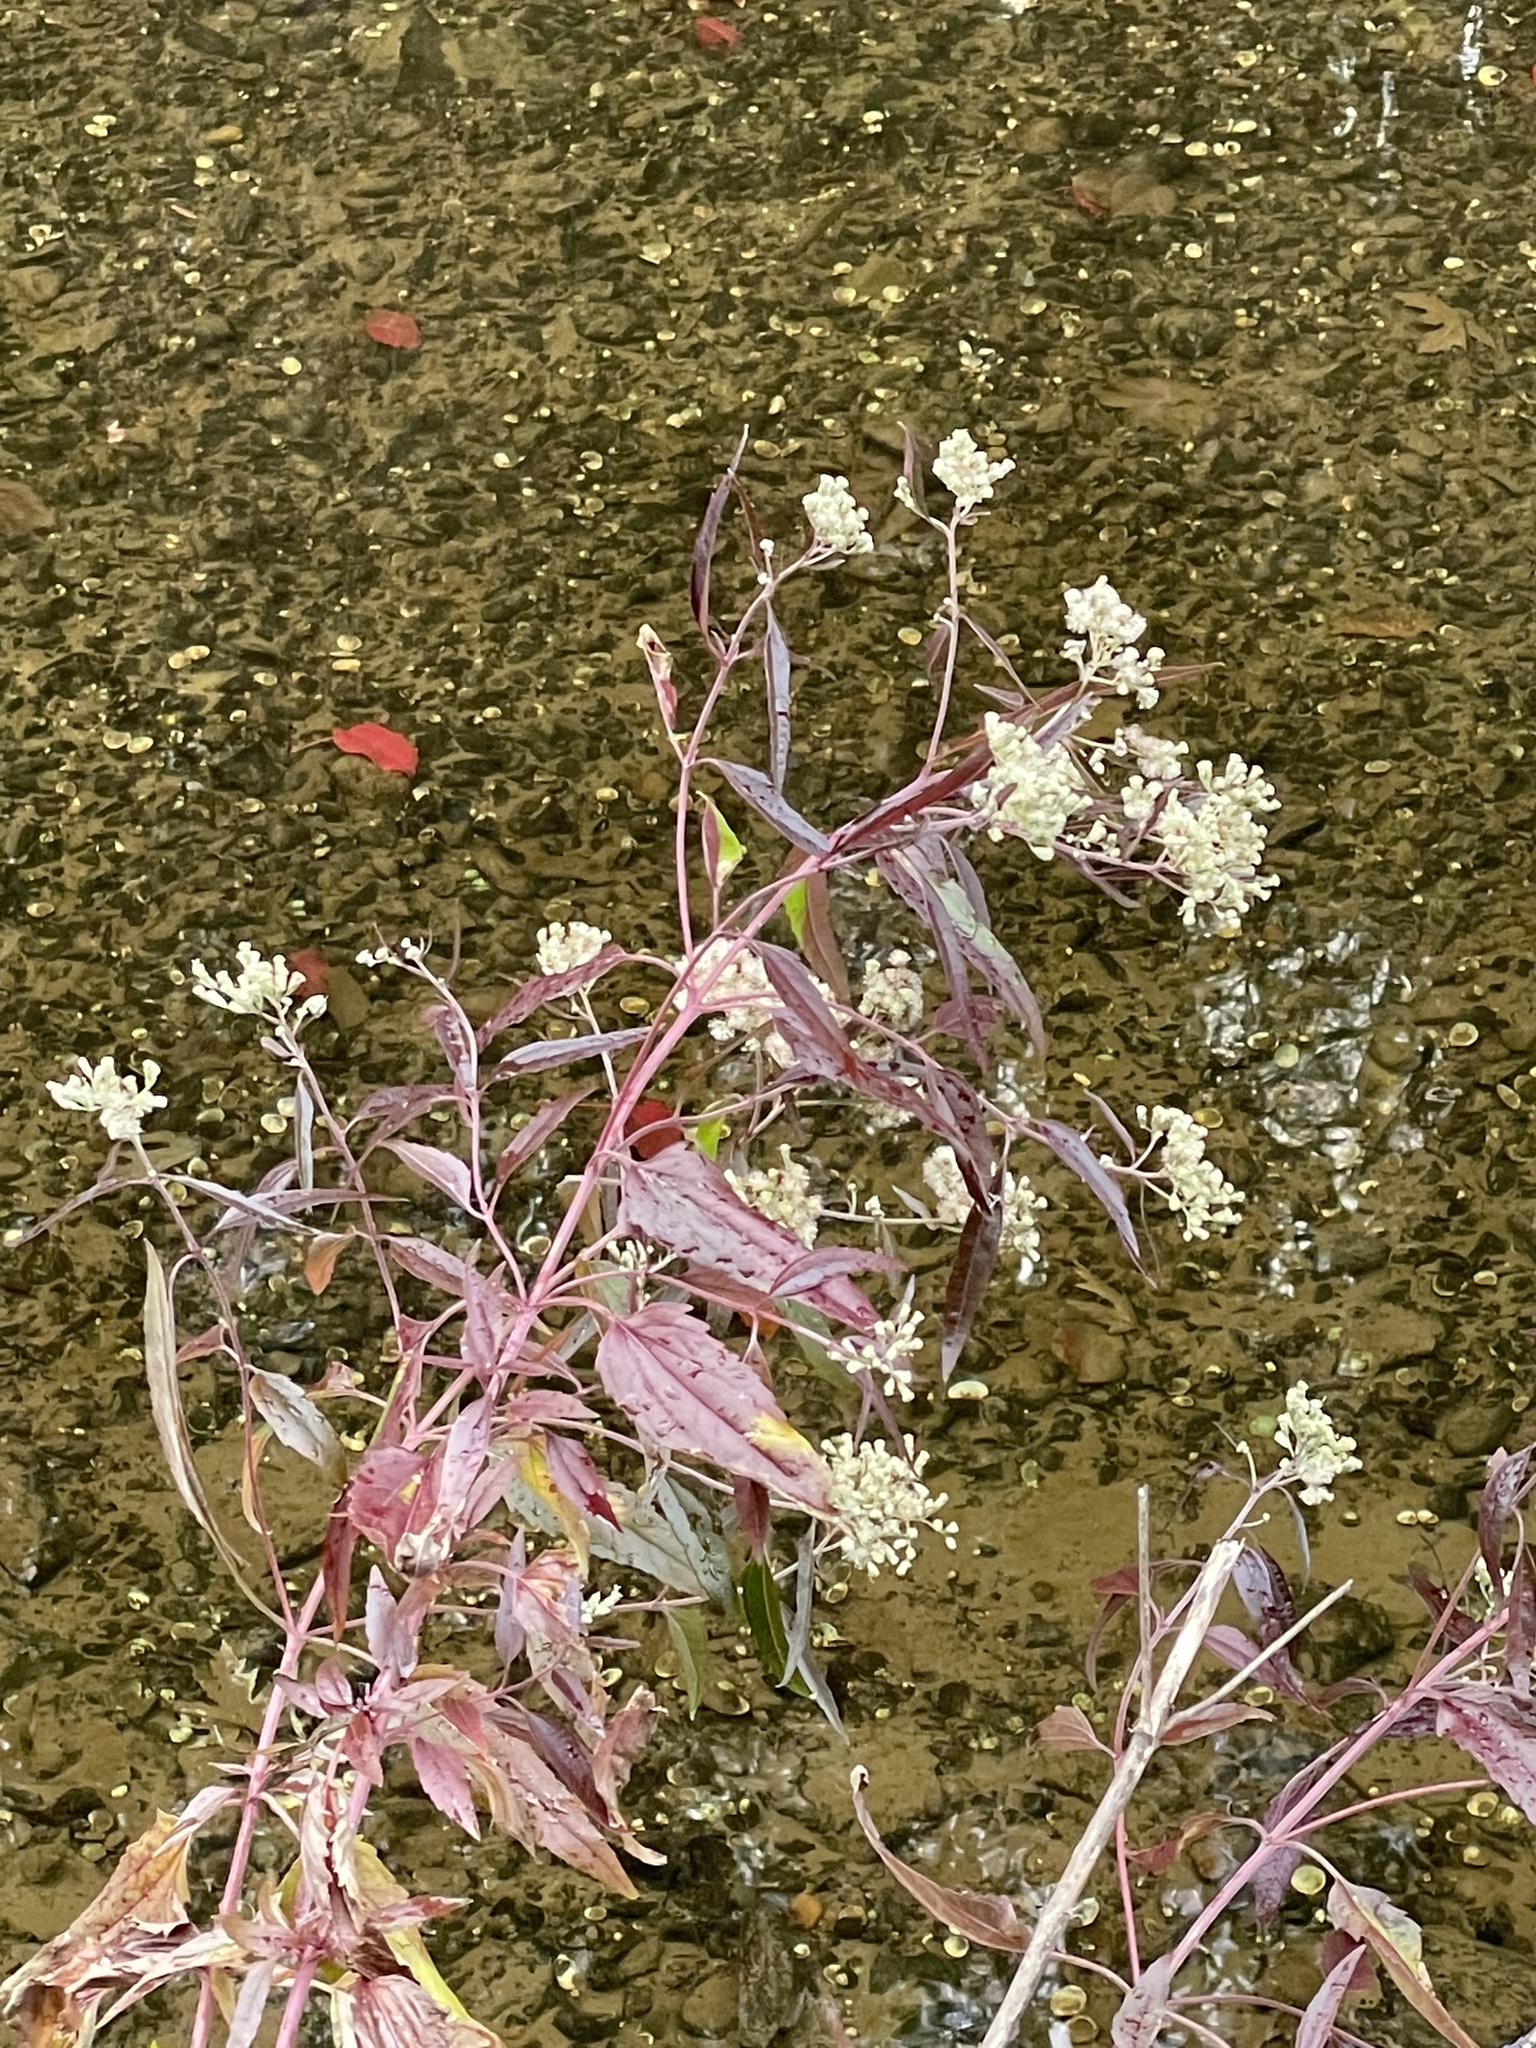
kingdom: Plantae
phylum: Tracheophyta
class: Magnoliopsida
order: Asterales
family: Asteraceae
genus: Eupatorium
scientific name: Eupatorium serotinum
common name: Late boneset
